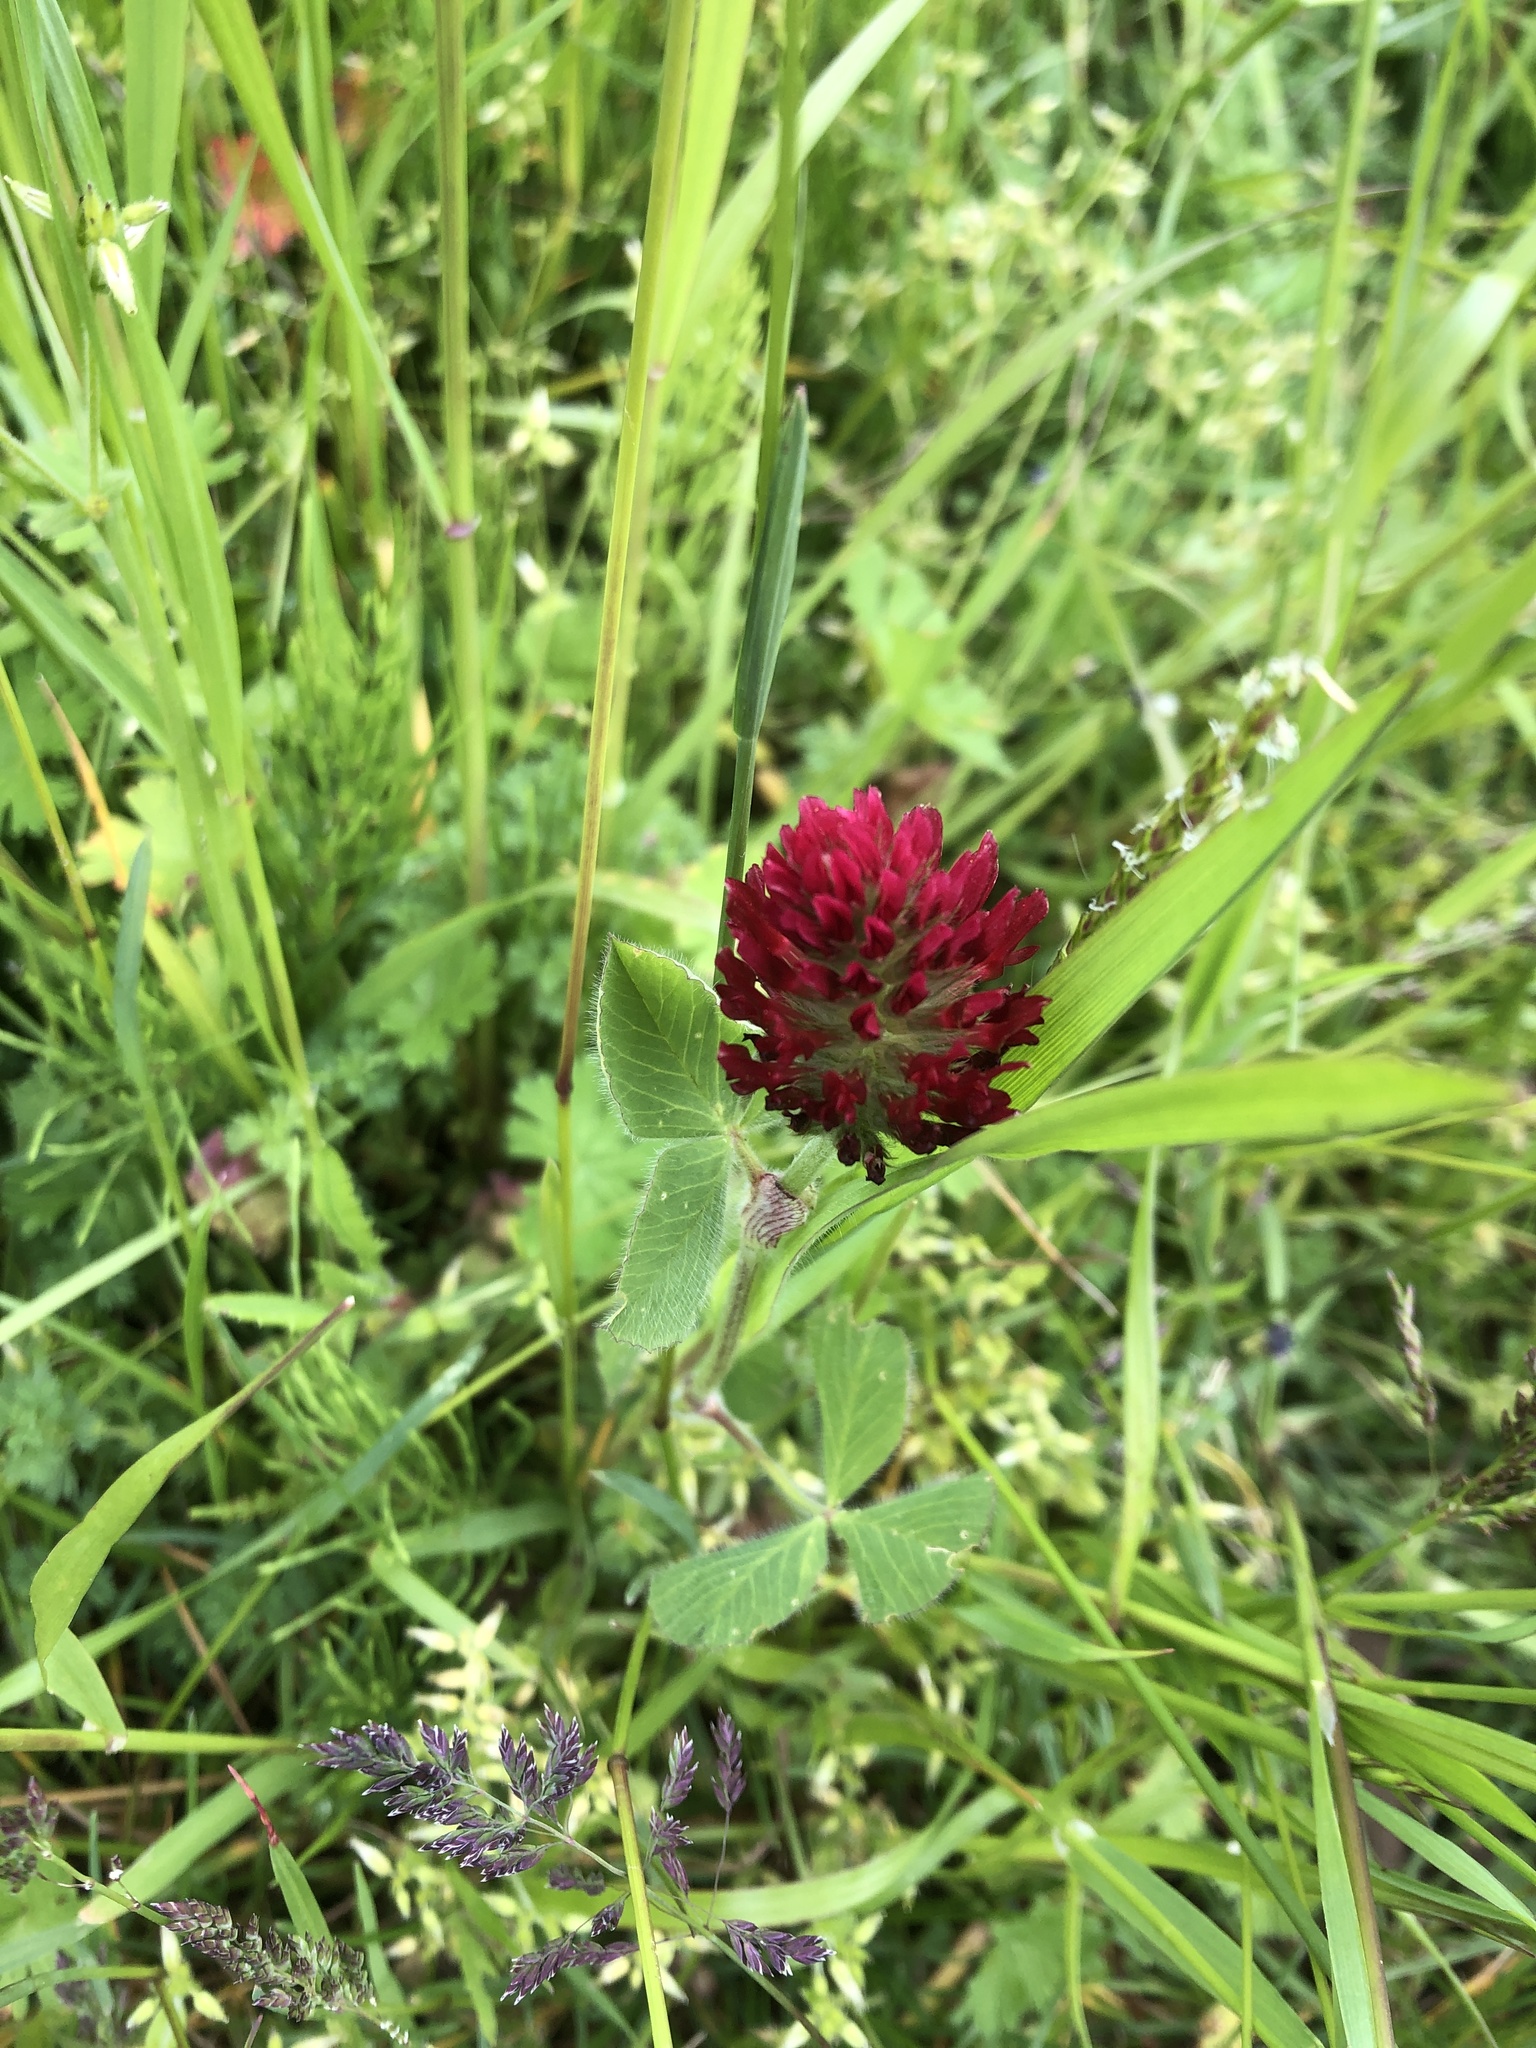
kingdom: Plantae
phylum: Tracheophyta
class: Magnoliopsida
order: Fabales
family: Fabaceae
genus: Trifolium
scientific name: Trifolium incarnatum
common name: Crimson clover
